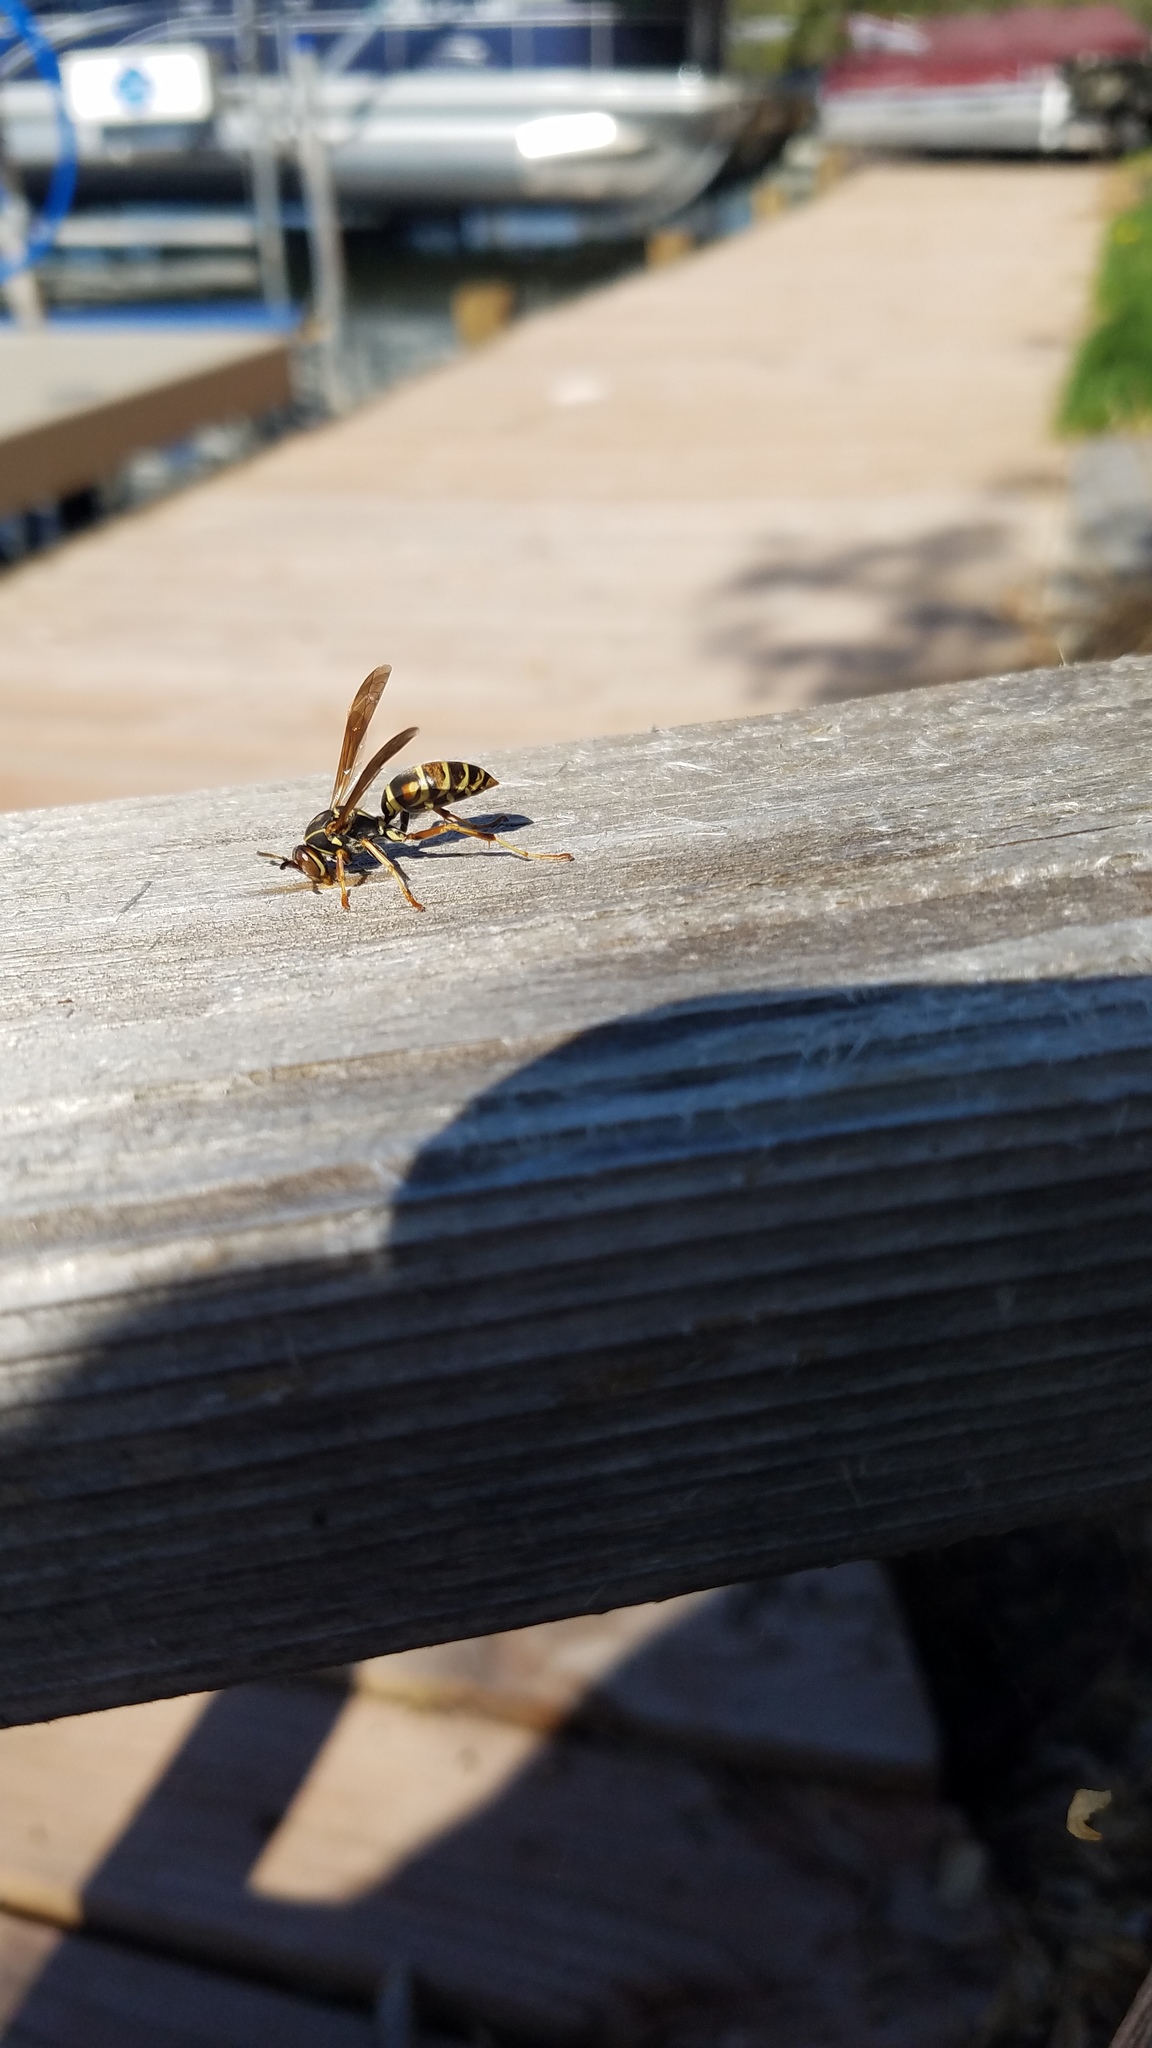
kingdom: Animalia
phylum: Arthropoda
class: Insecta
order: Hymenoptera
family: Eumenidae
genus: Polistes
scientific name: Polistes fuscatus
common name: Dark paper wasp
